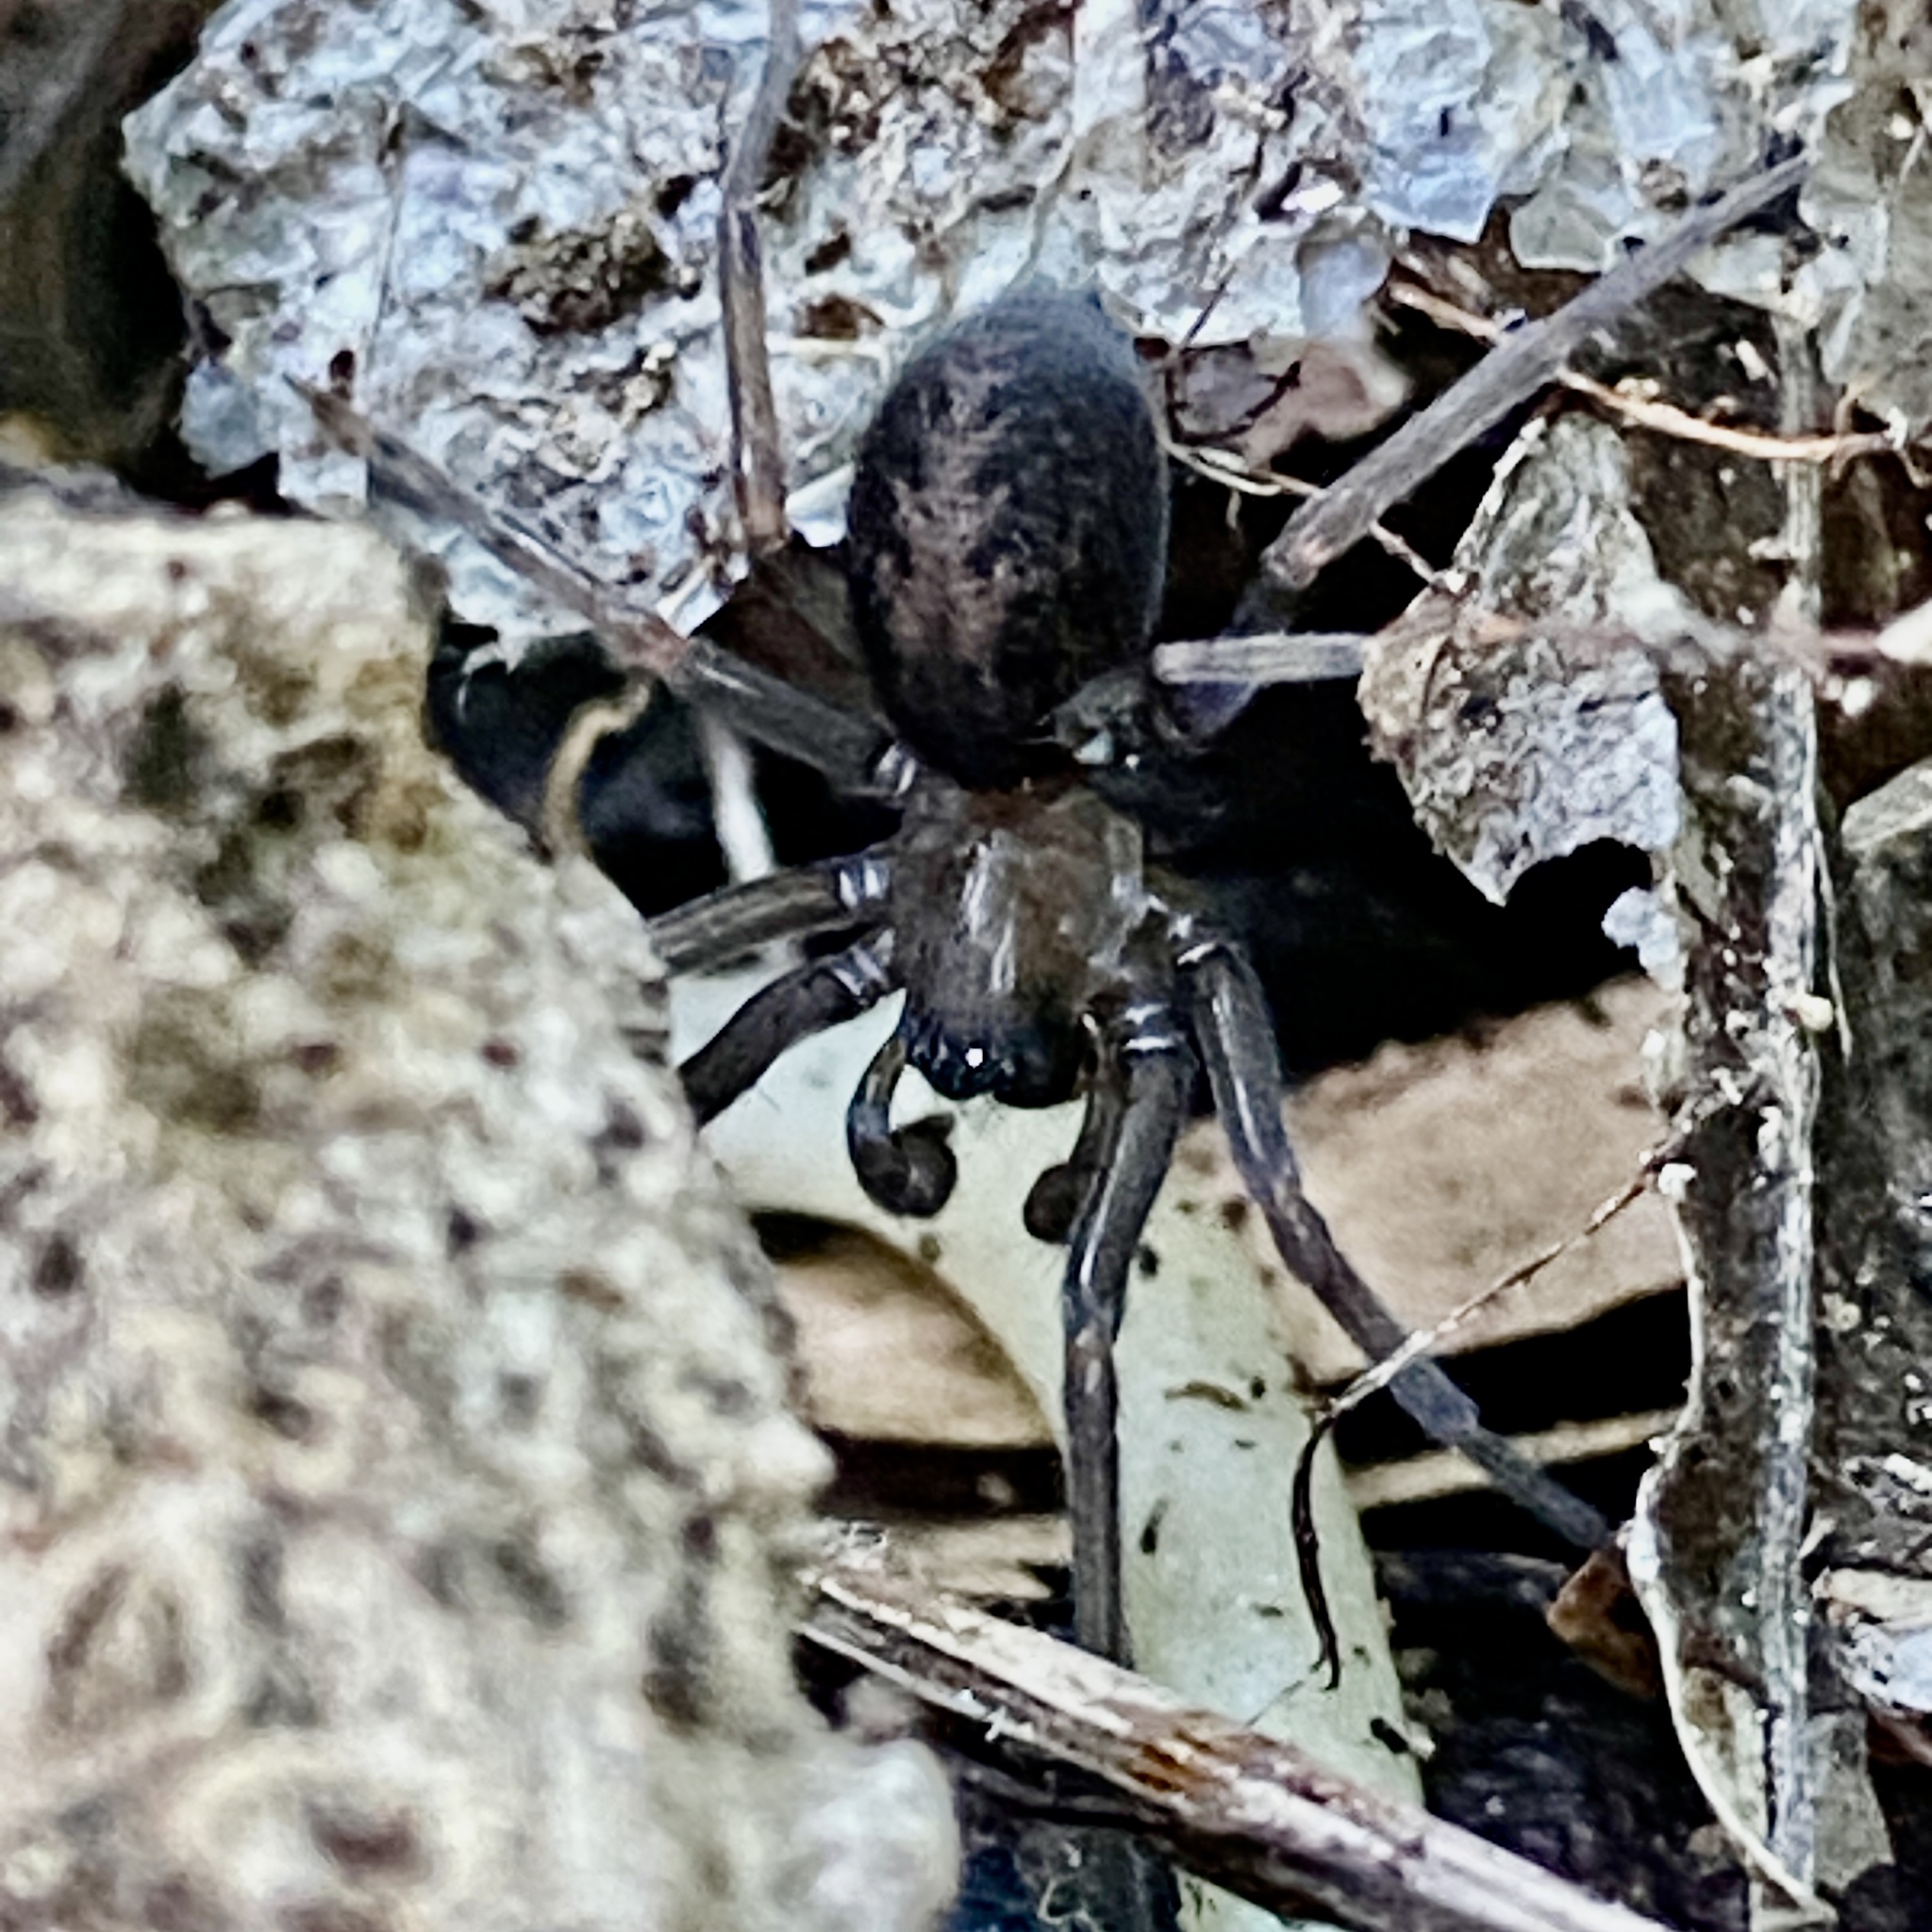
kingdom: Animalia
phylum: Arthropoda
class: Arachnida
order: Araneae
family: Desidae
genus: Metaltella
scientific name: Metaltella simoni
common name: Cribellate spider
